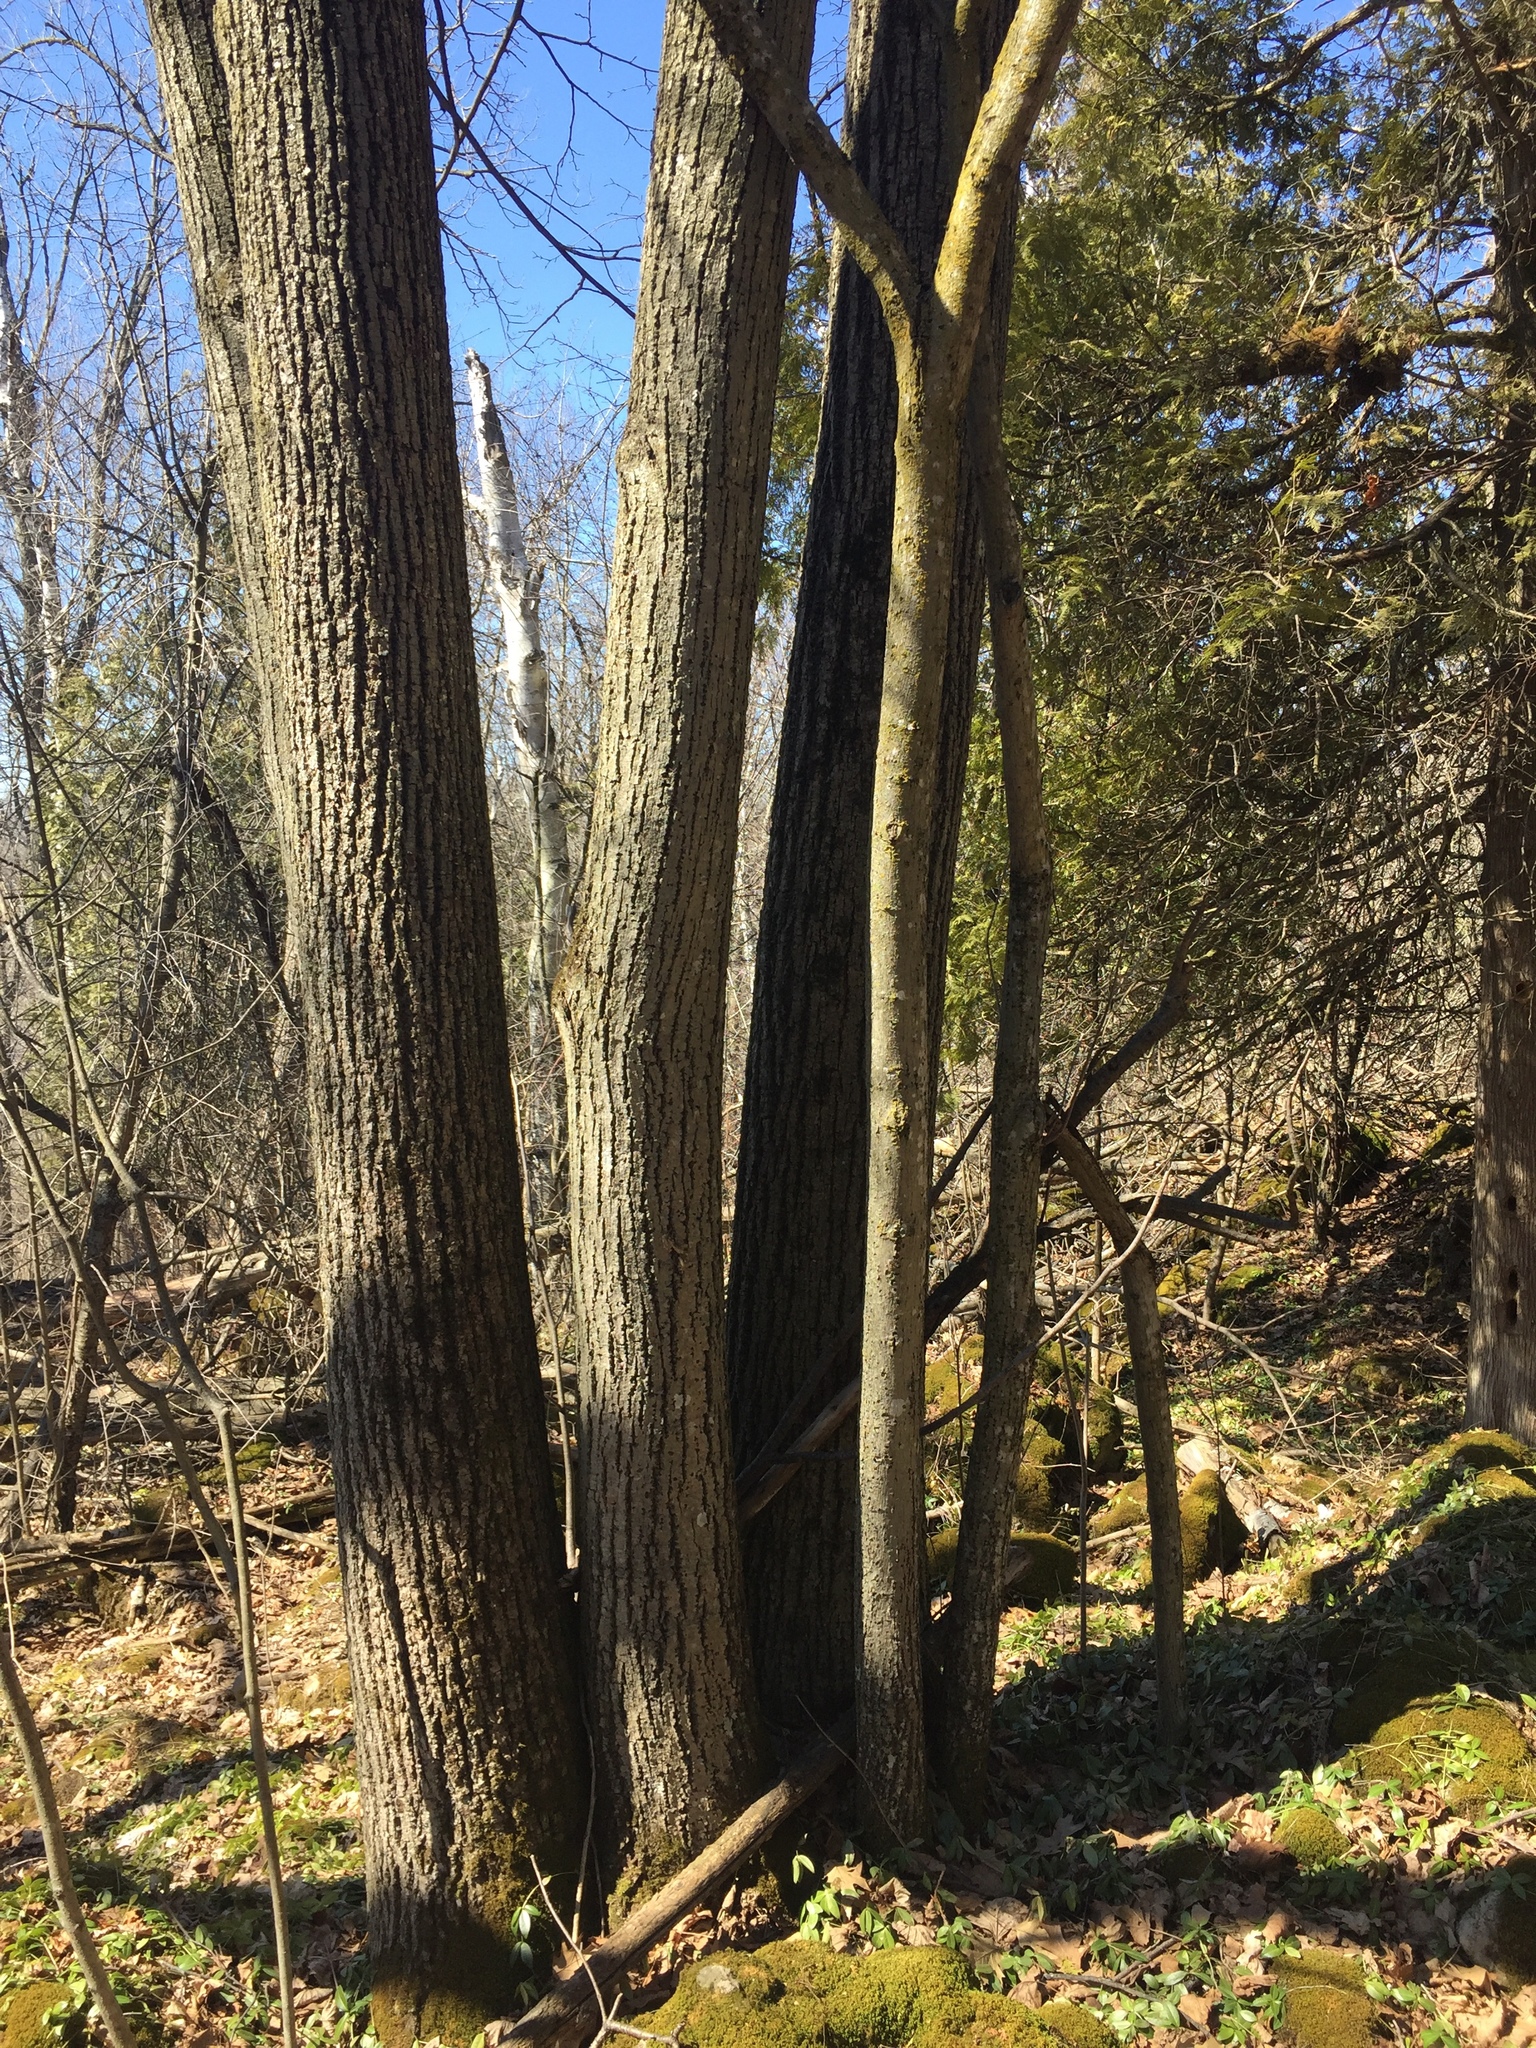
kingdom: Plantae
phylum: Tracheophyta
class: Magnoliopsida
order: Malvales
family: Malvaceae
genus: Tilia
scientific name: Tilia americana
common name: Basswood
